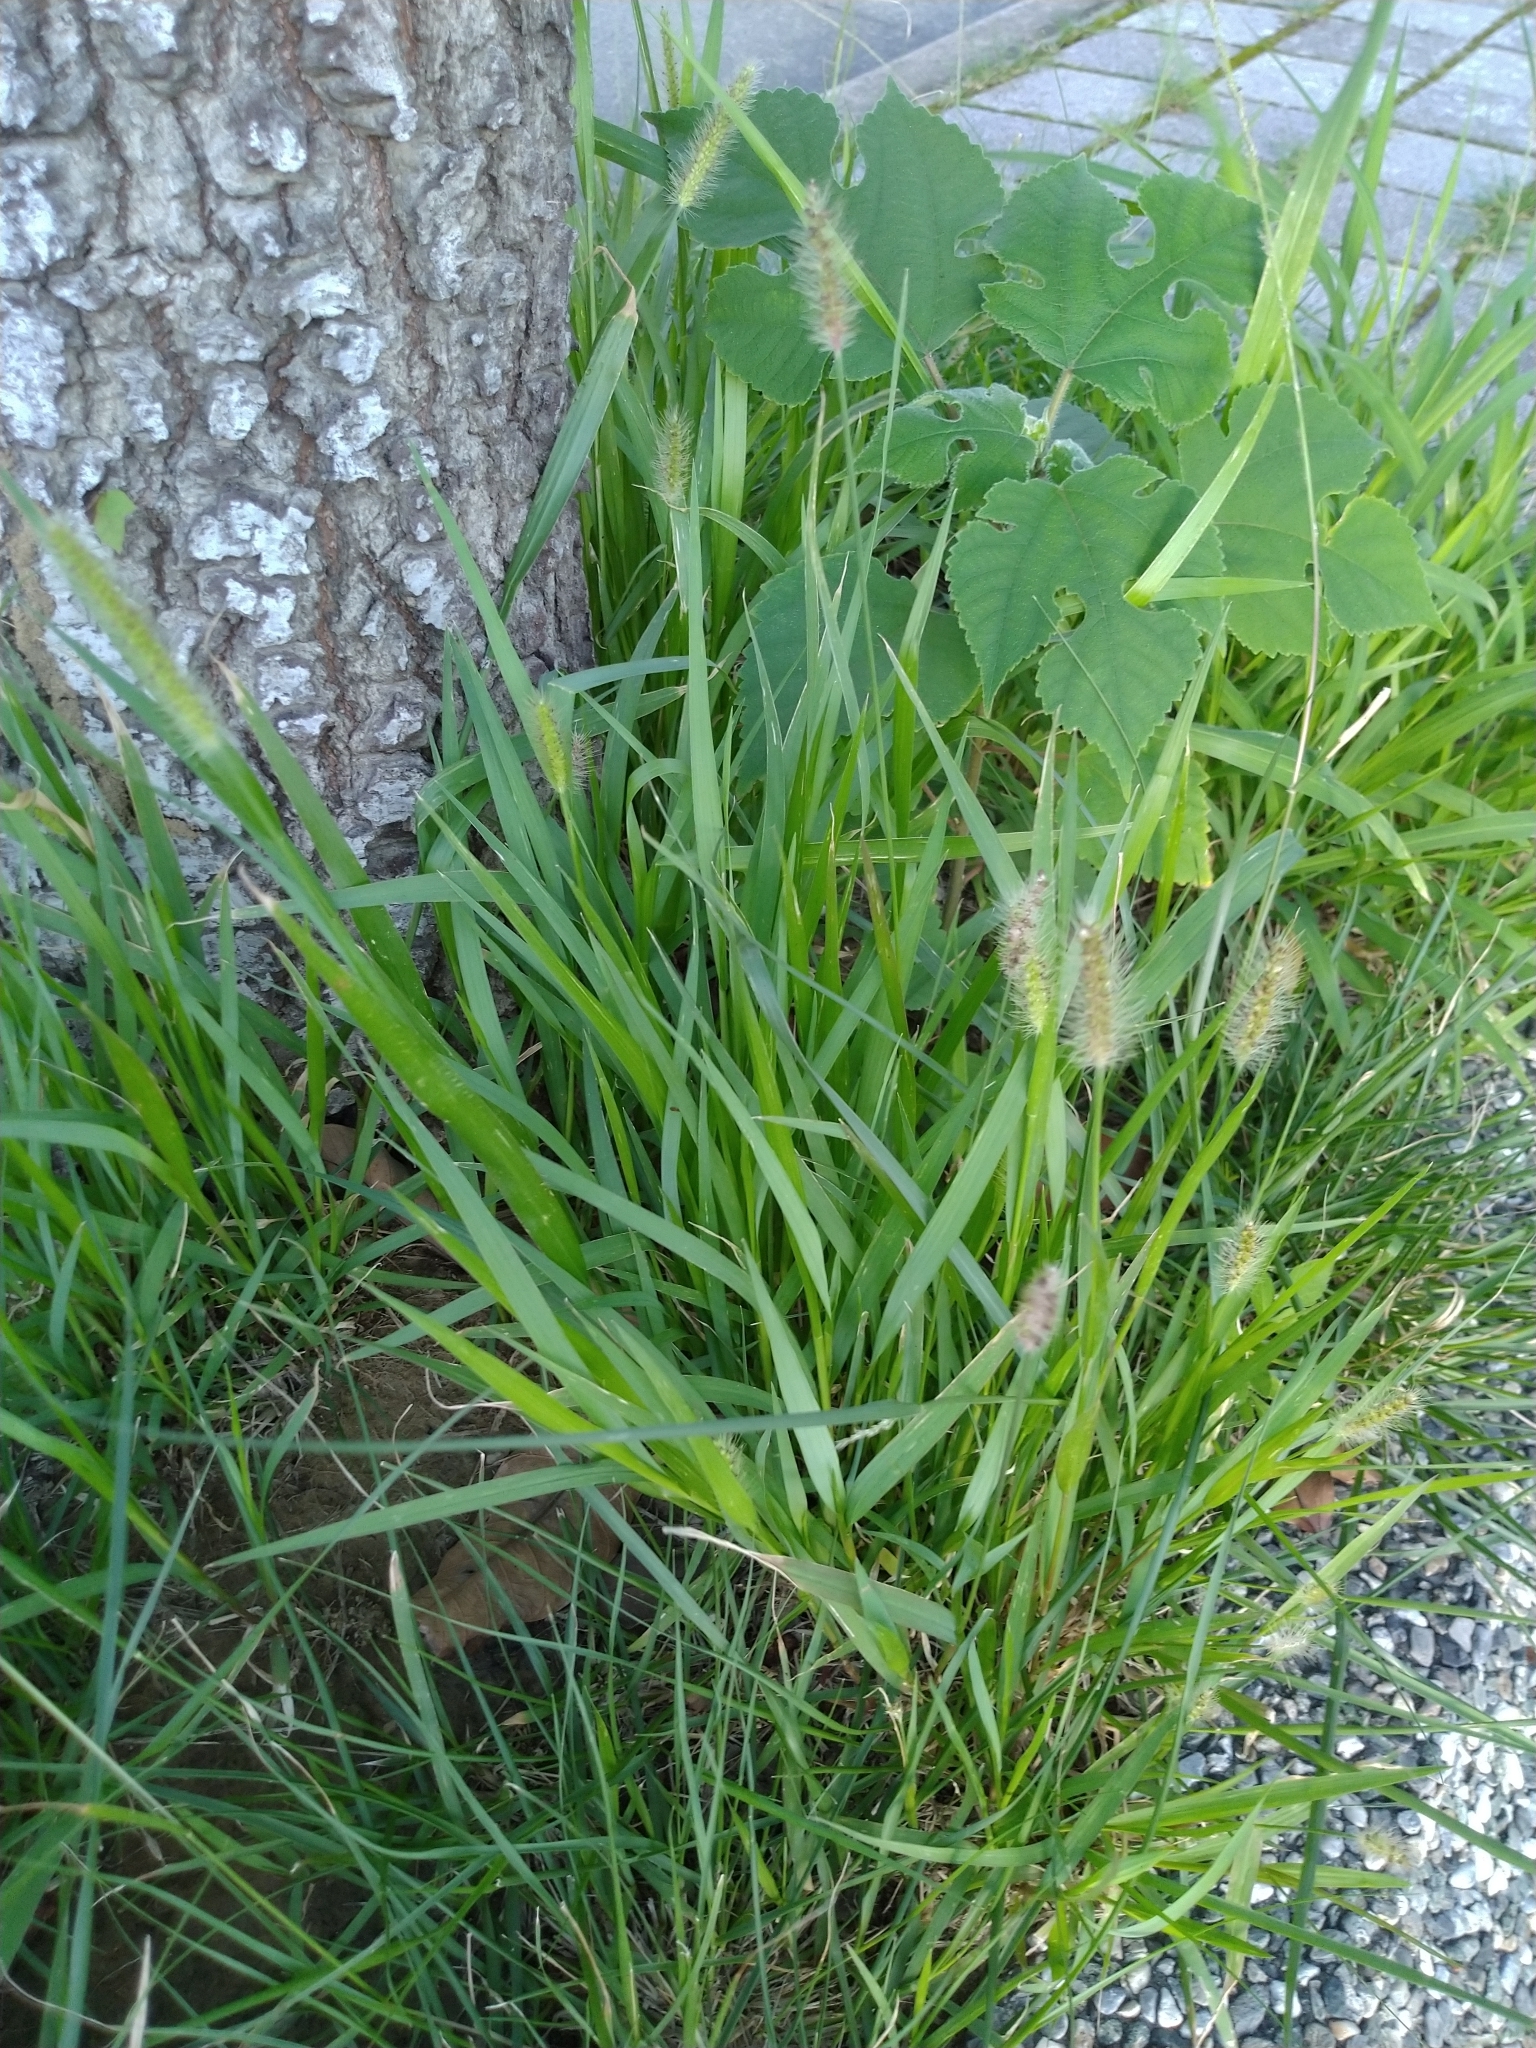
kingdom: Plantae
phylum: Tracheophyta
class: Liliopsida
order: Poales
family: Poaceae
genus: Setaria
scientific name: Setaria parviflora
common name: Knotroot bristle-grass
